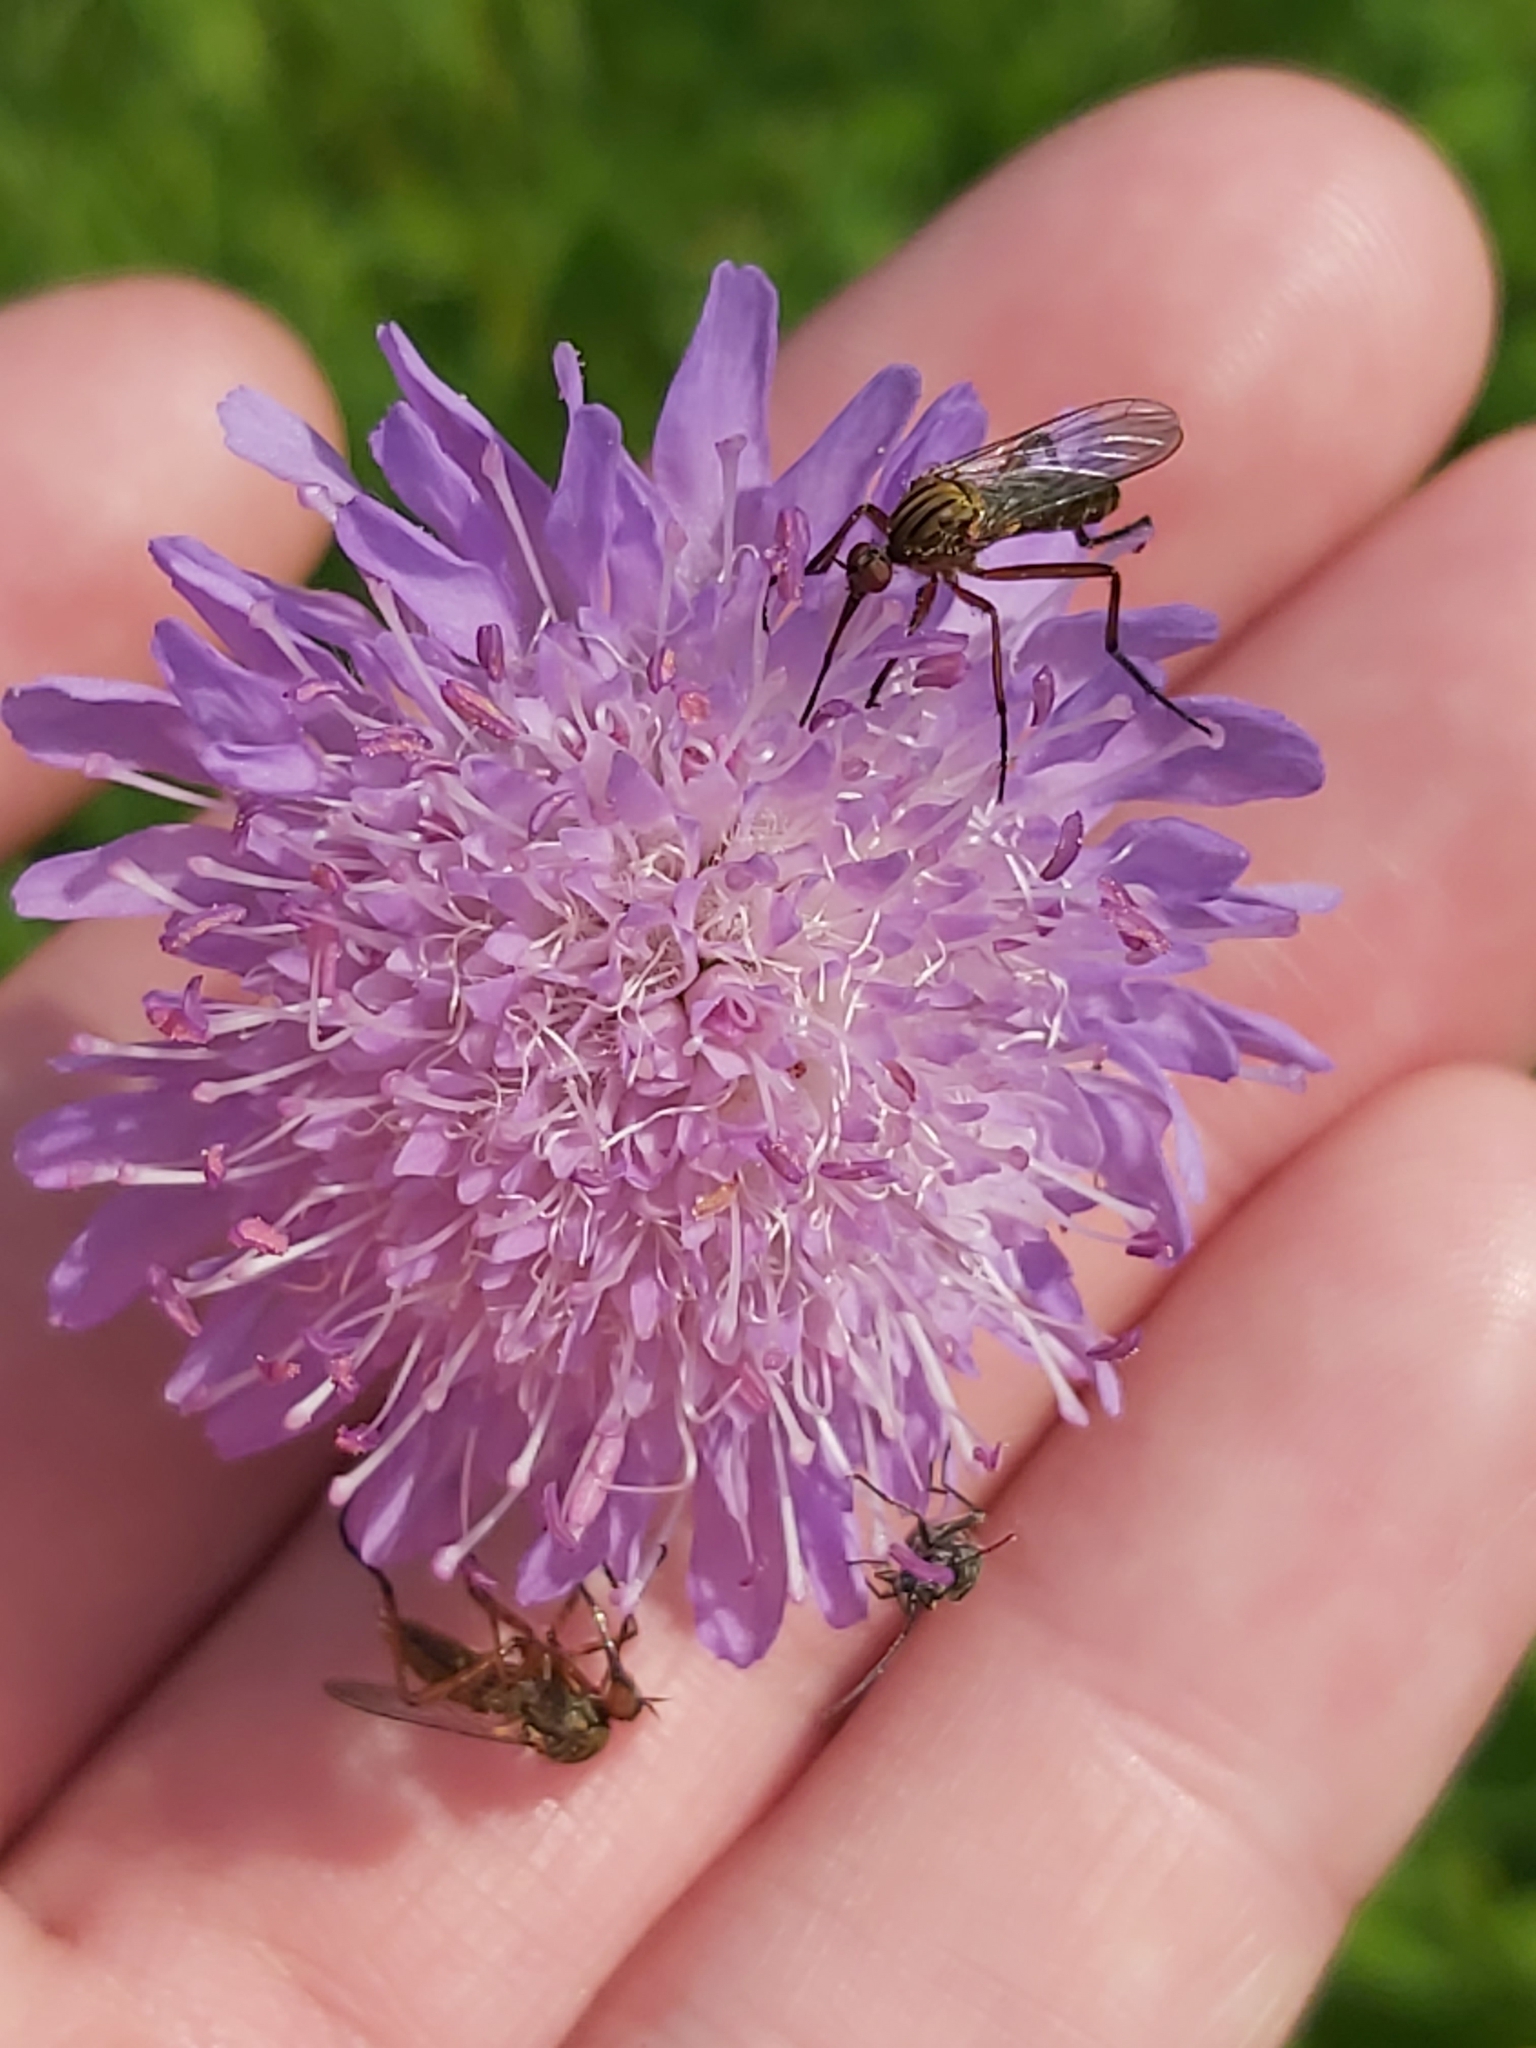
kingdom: Plantae
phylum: Tracheophyta
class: Magnoliopsida
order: Dipsacales
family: Caprifoliaceae
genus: Knautia
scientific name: Knautia arvensis
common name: Field scabiosa
